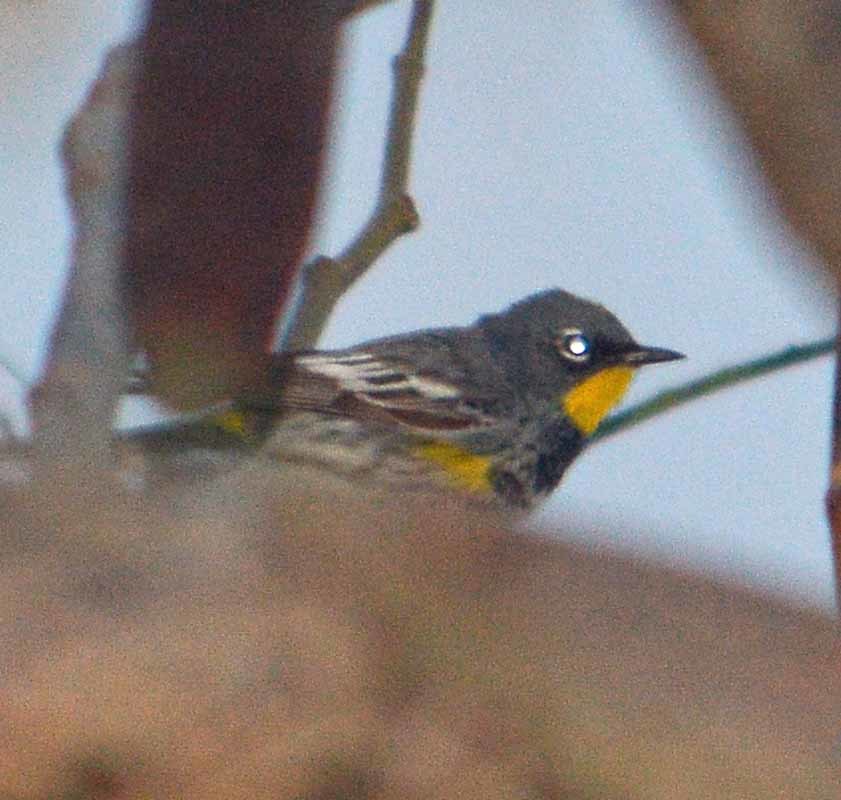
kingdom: Animalia
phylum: Chordata
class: Aves
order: Passeriformes
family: Parulidae
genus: Setophaga
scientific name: Setophaga coronata
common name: Myrtle warbler
